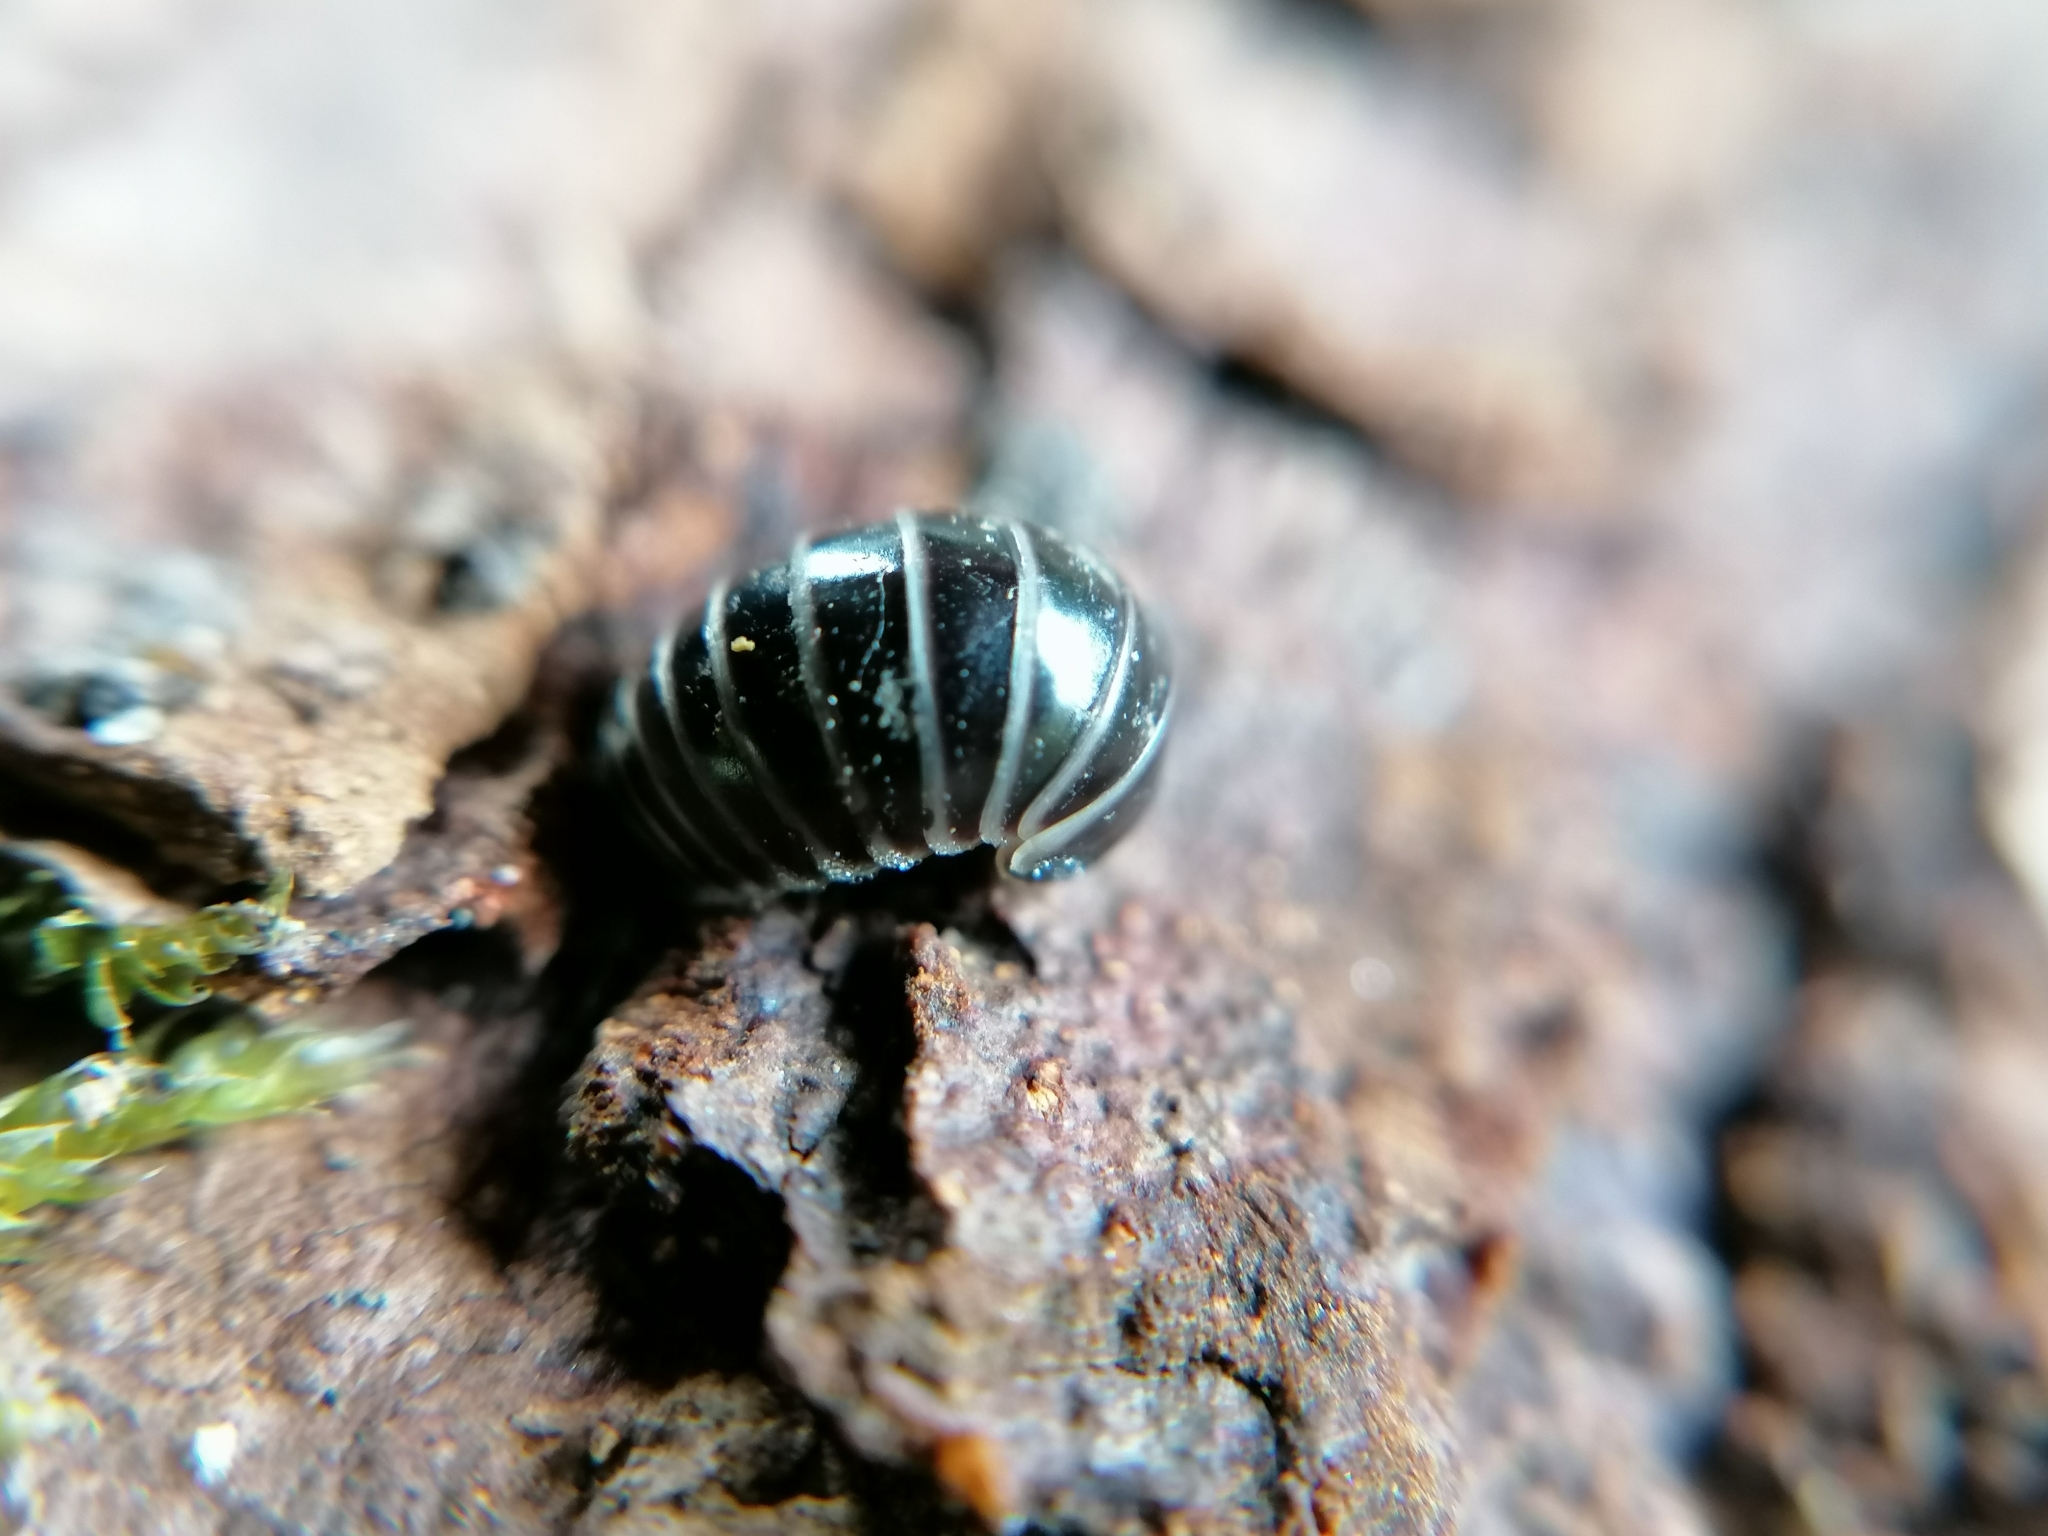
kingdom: Animalia
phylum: Arthropoda
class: Diplopoda
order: Glomerida
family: Glomeridae
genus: Glomeris
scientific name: Glomeris marginata
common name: Bordered pill millipede
